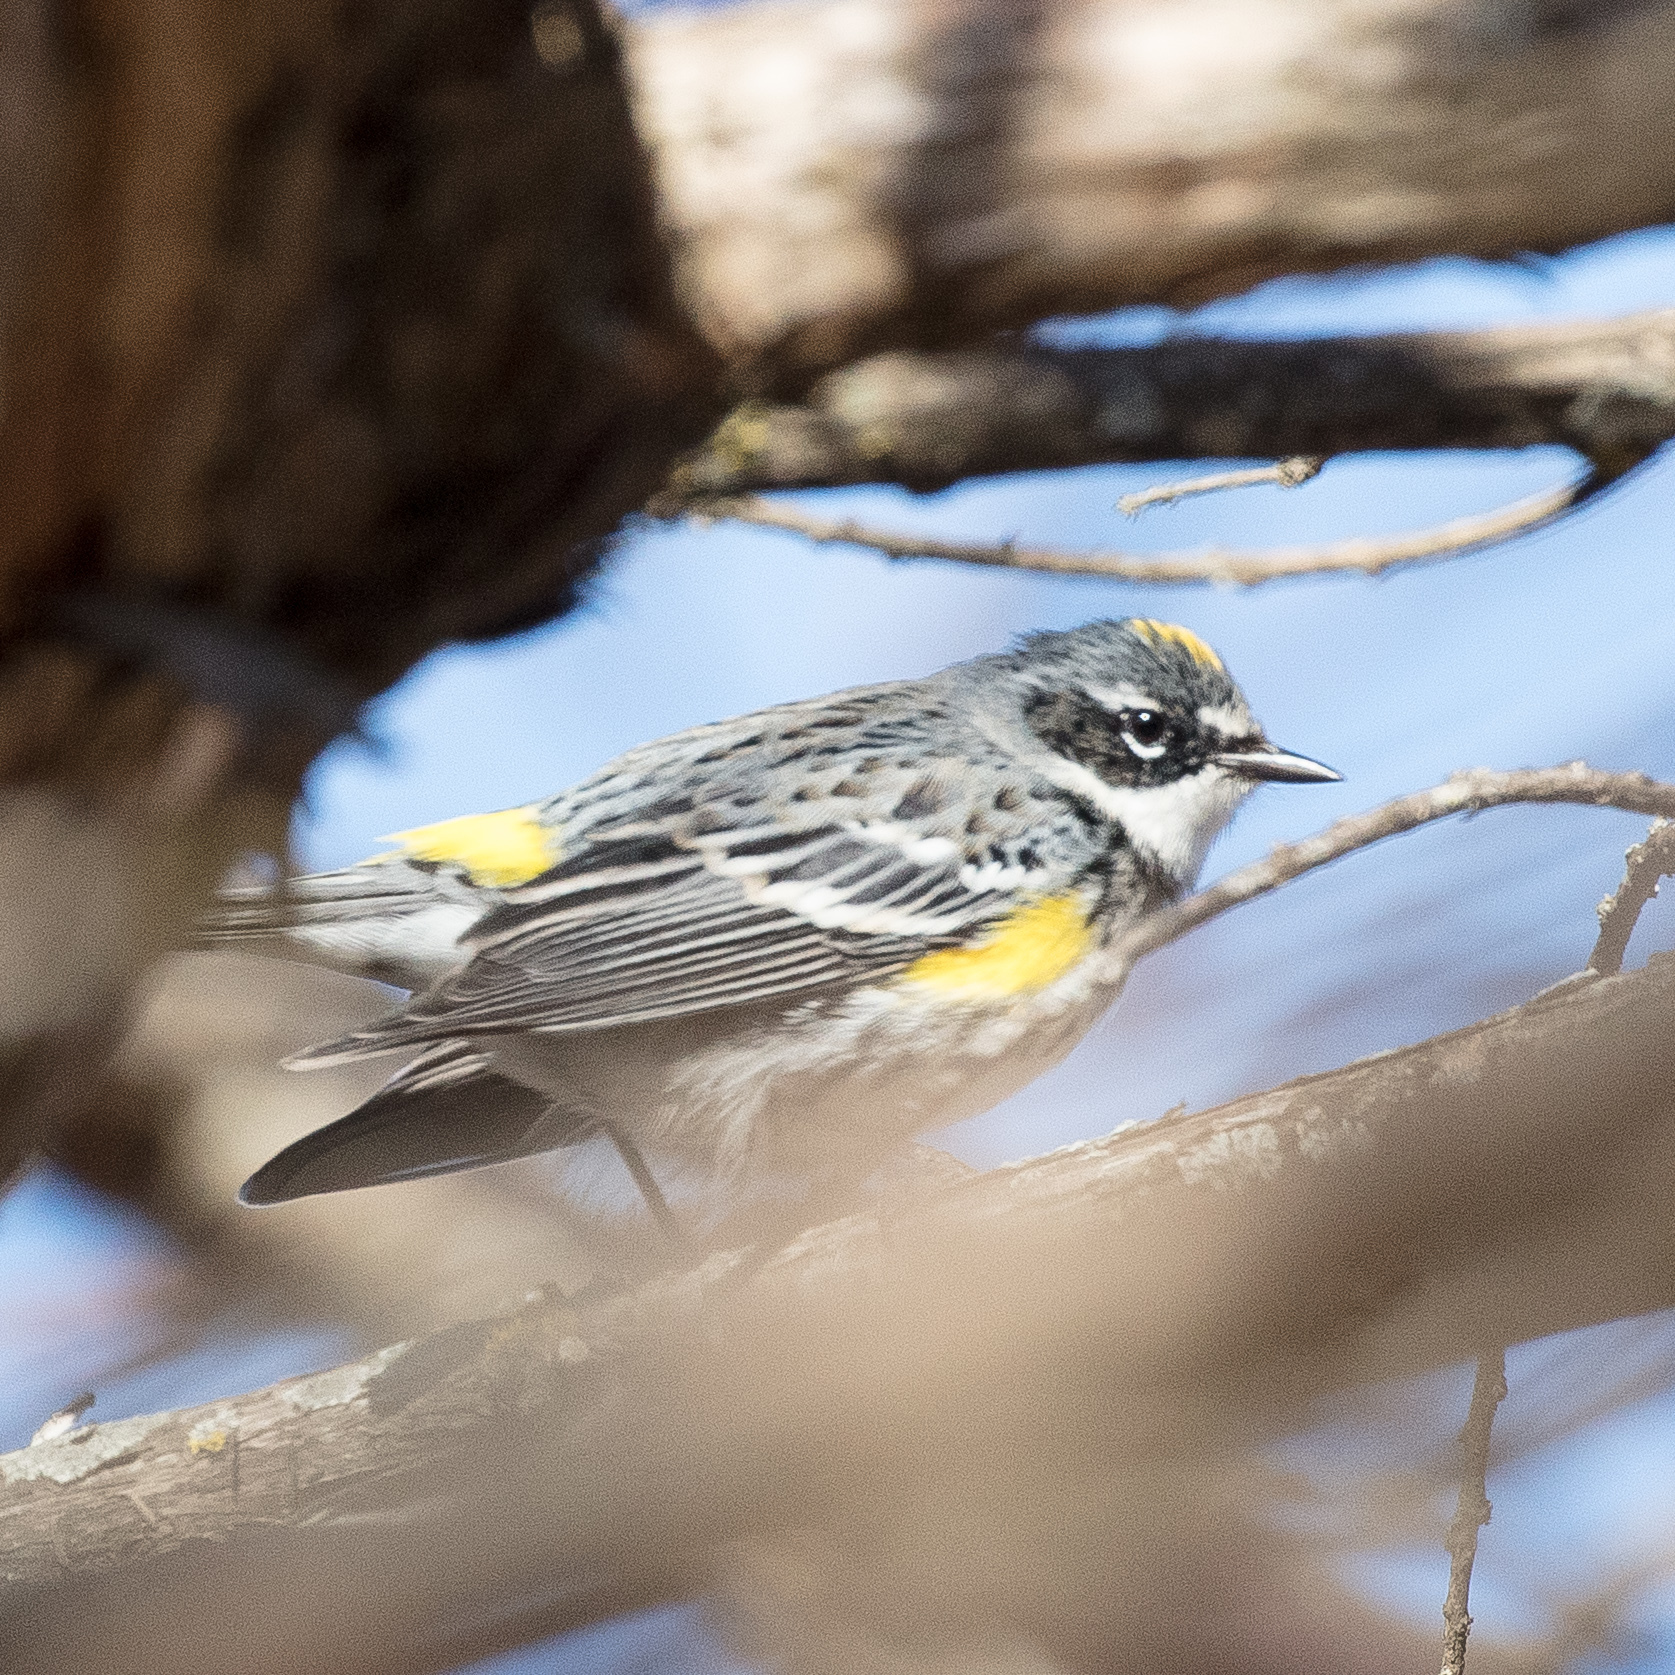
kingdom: Animalia
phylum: Chordata
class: Aves
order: Passeriformes
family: Parulidae
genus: Setophaga
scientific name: Setophaga coronata
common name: Myrtle warbler
